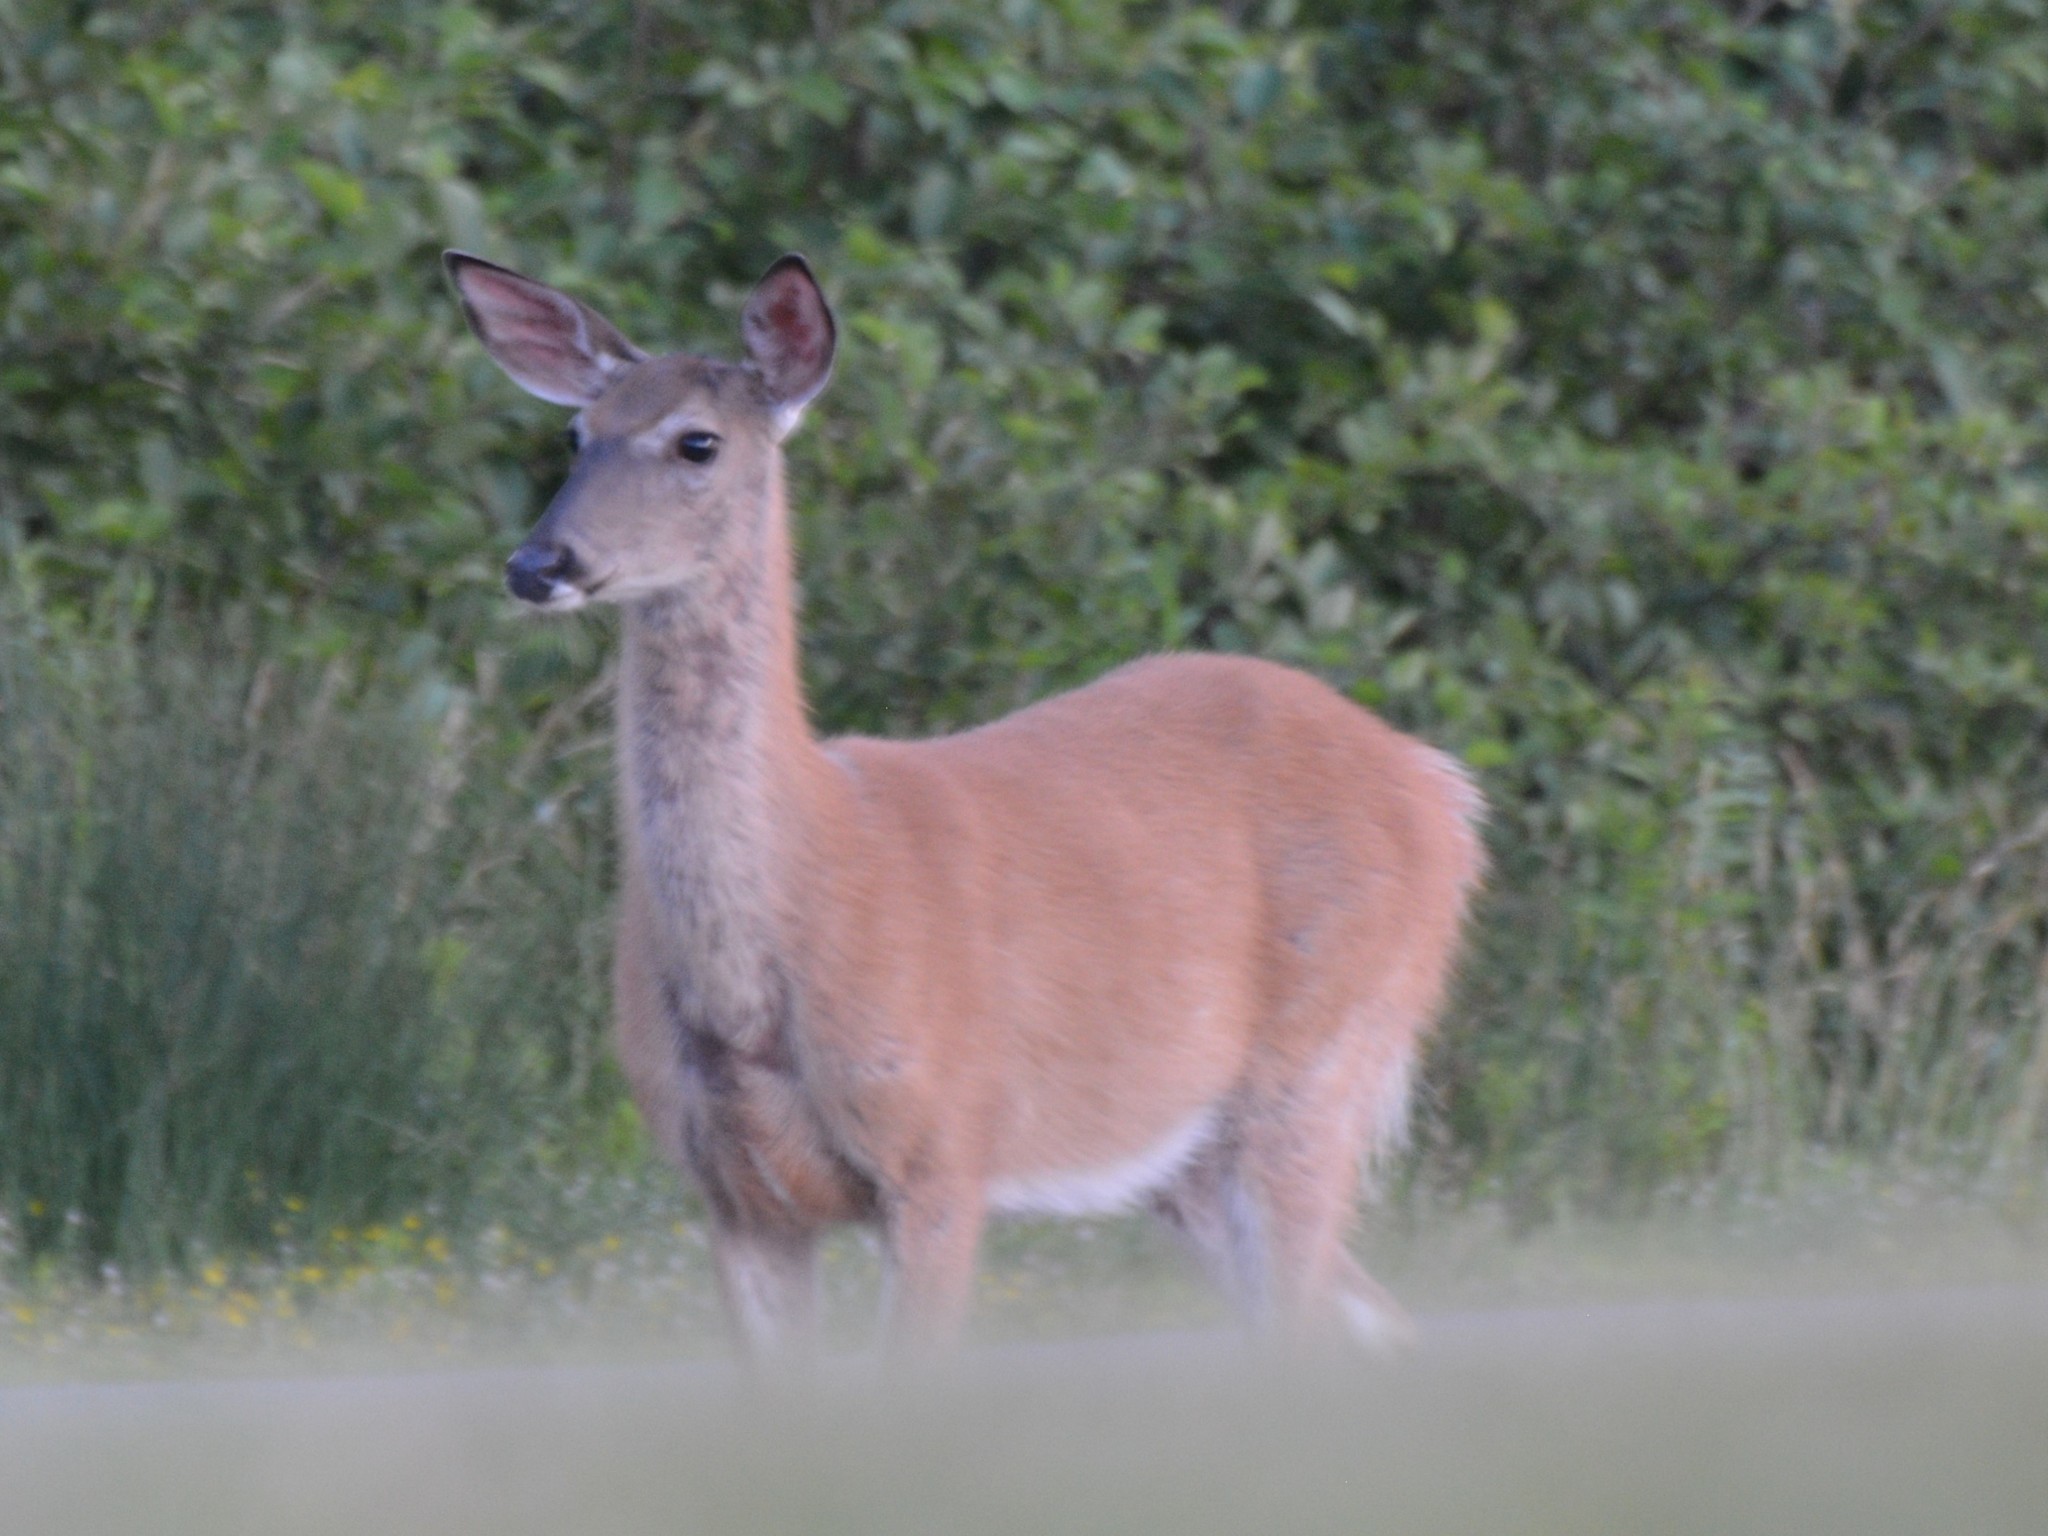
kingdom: Animalia
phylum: Chordata
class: Mammalia
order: Artiodactyla
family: Cervidae
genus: Odocoileus
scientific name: Odocoileus virginianus
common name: White-tailed deer
